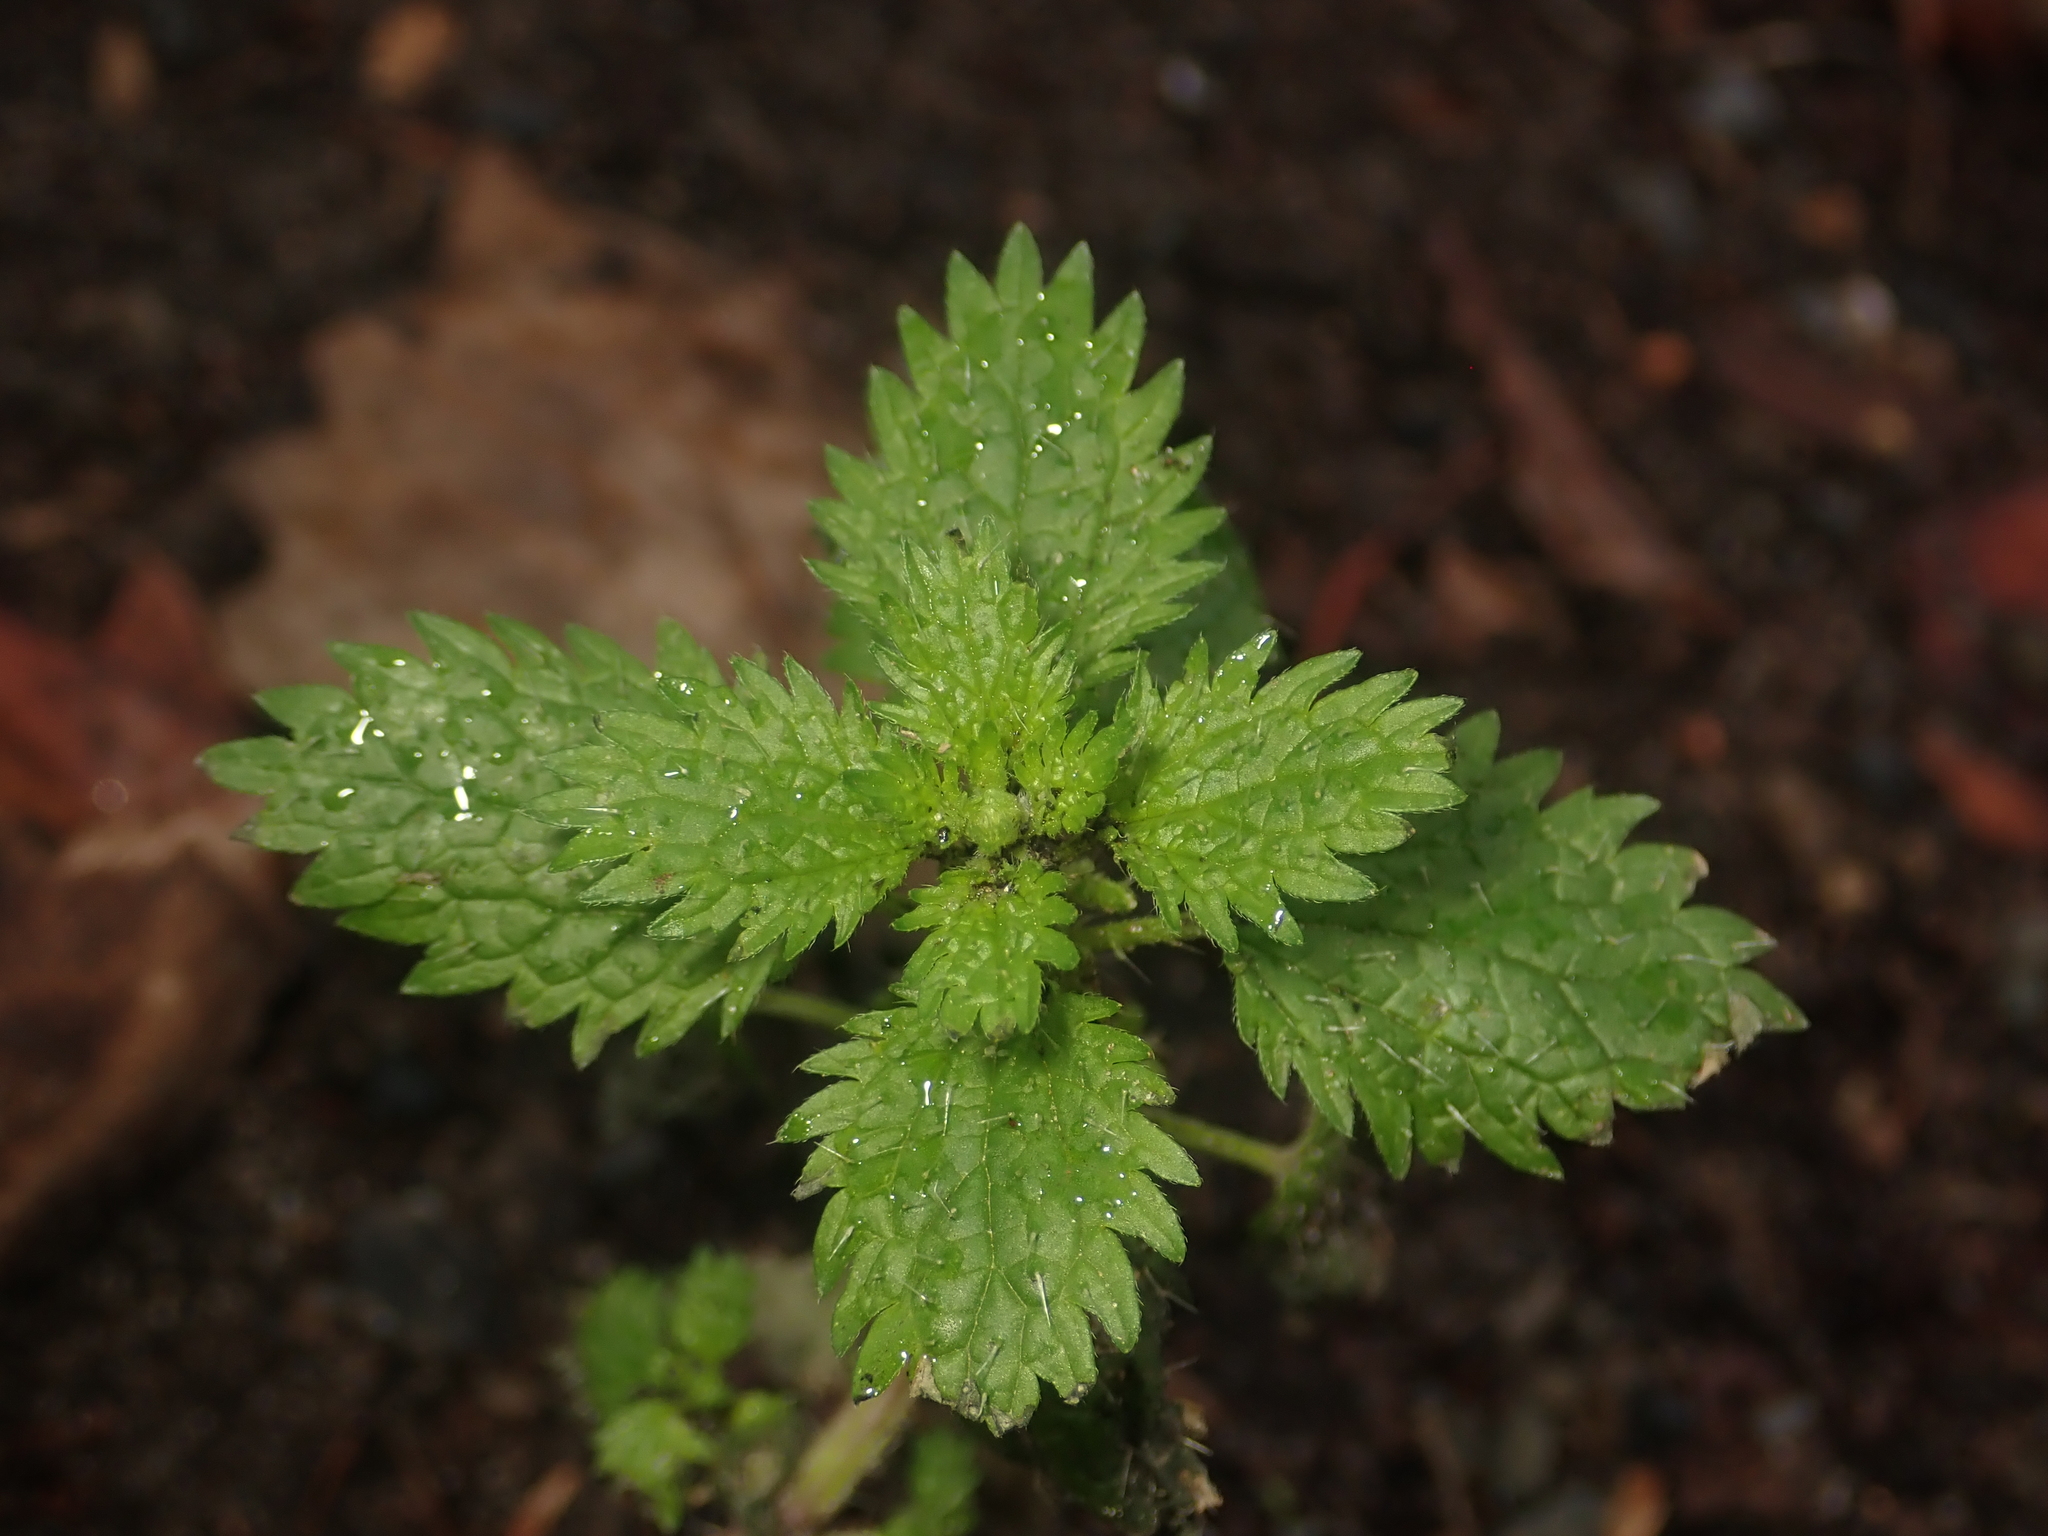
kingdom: Plantae
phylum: Tracheophyta
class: Magnoliopsida
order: Rosales
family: Urticaceae
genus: Urtica
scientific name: Urtica urens
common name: Dwarf nettle
